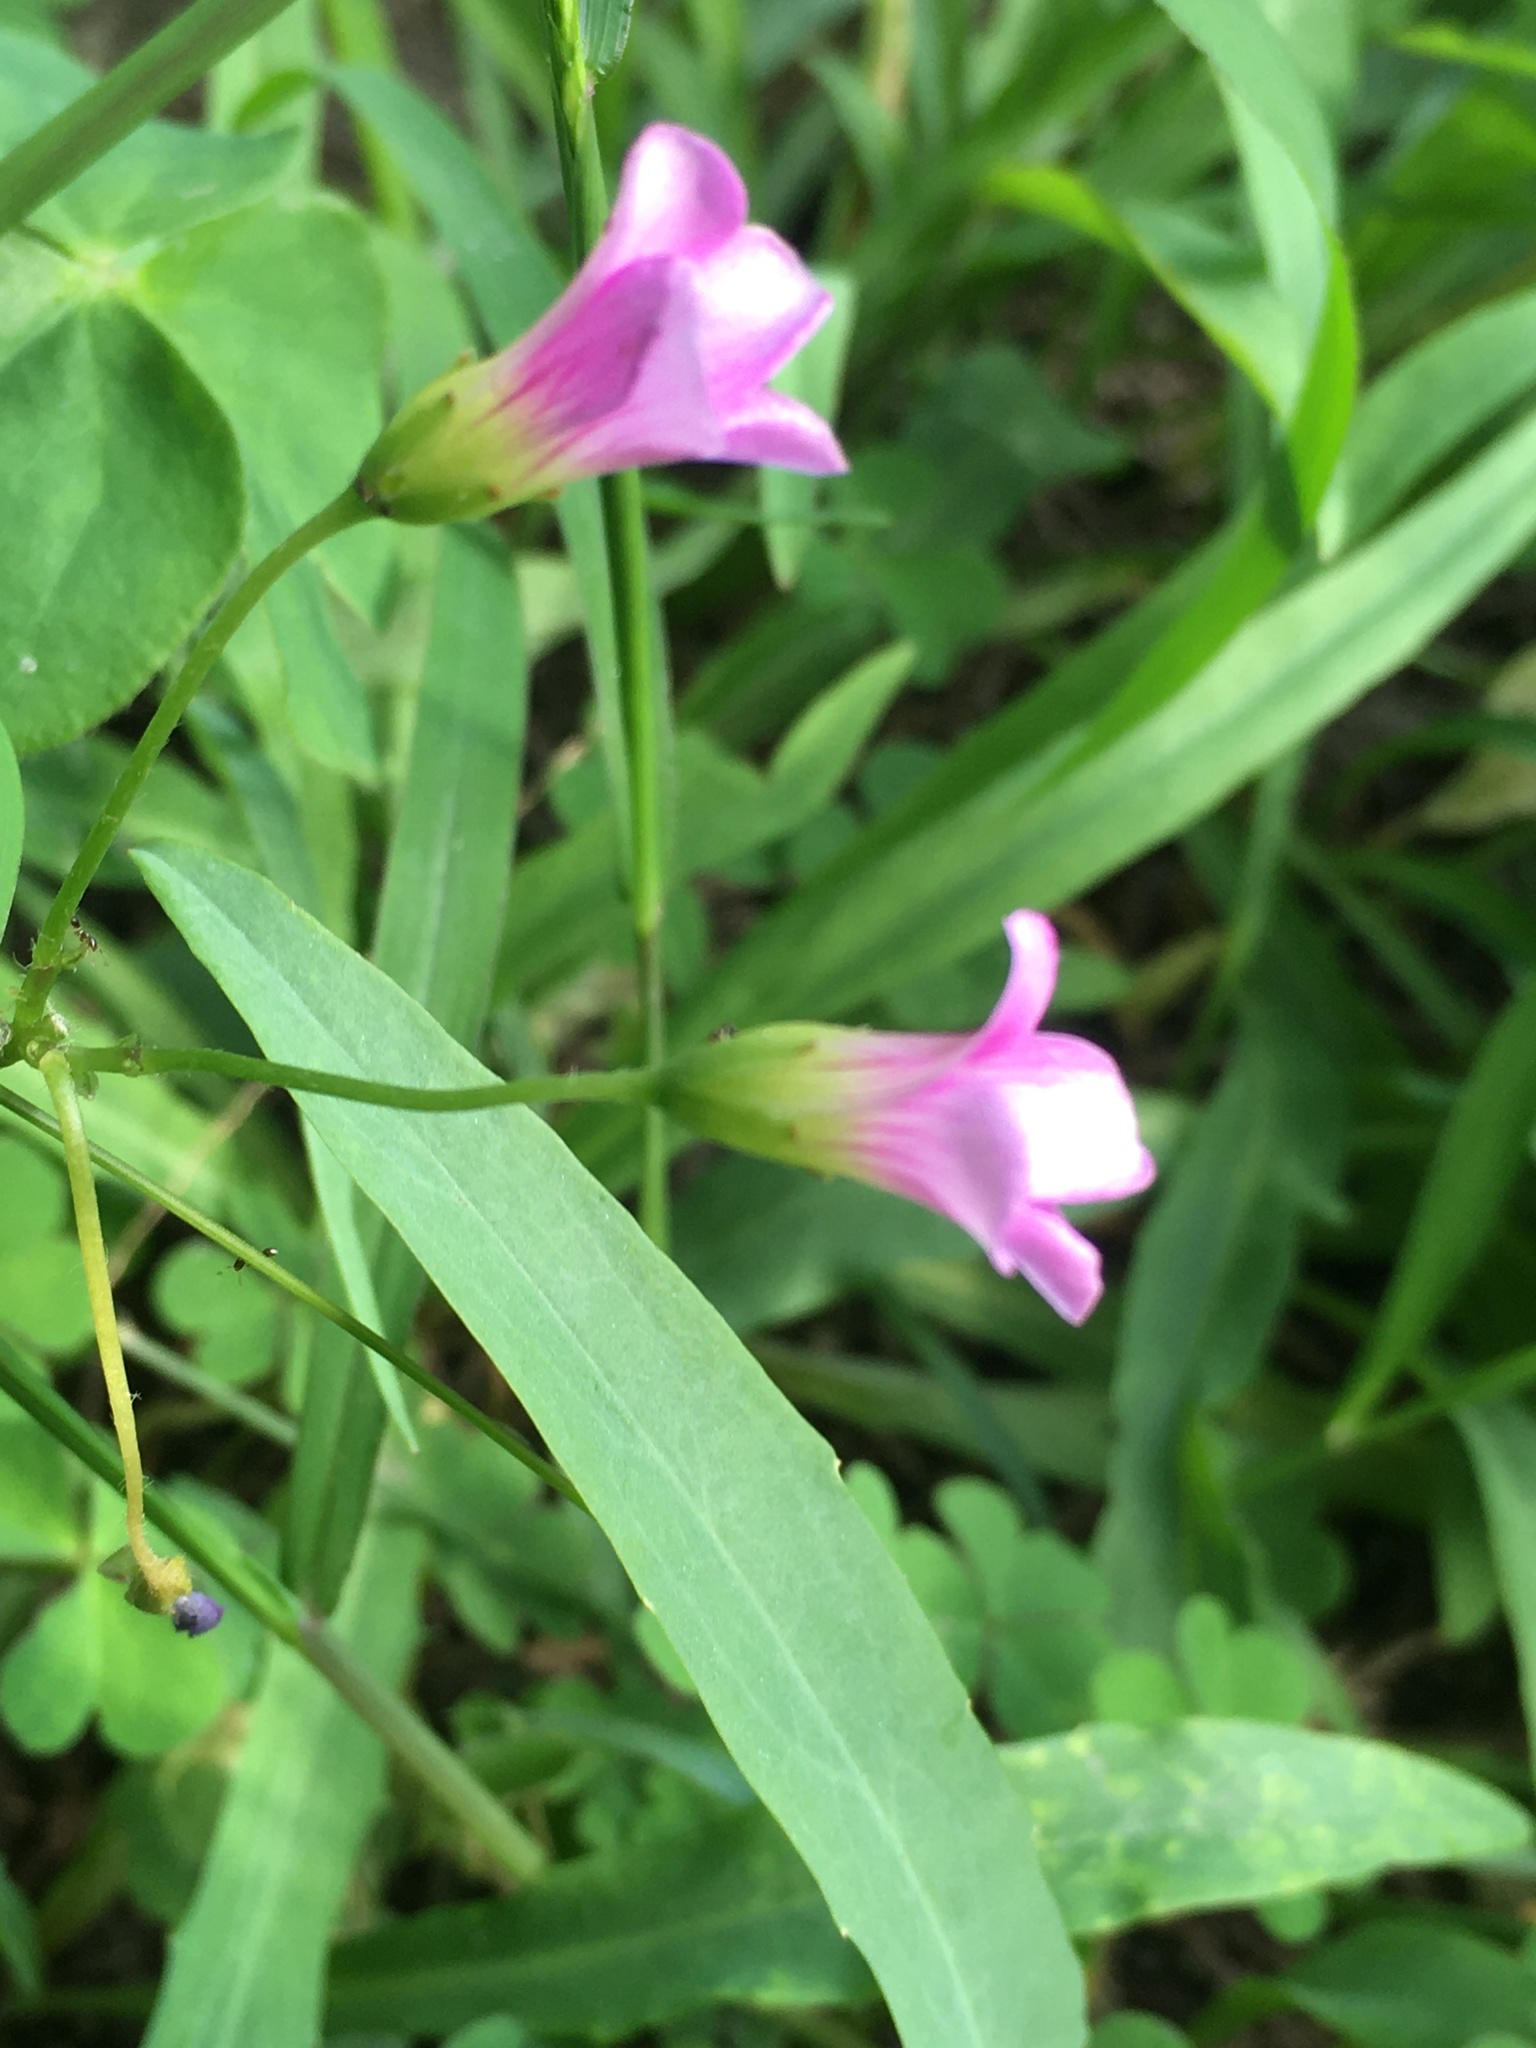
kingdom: Plantae
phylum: Tracheophyta
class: Magnoliopsida
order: Oxalidales
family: Oxalidaceae
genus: Oxalis
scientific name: Oxalis debilis
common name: Large-flowered pink-sorrel
